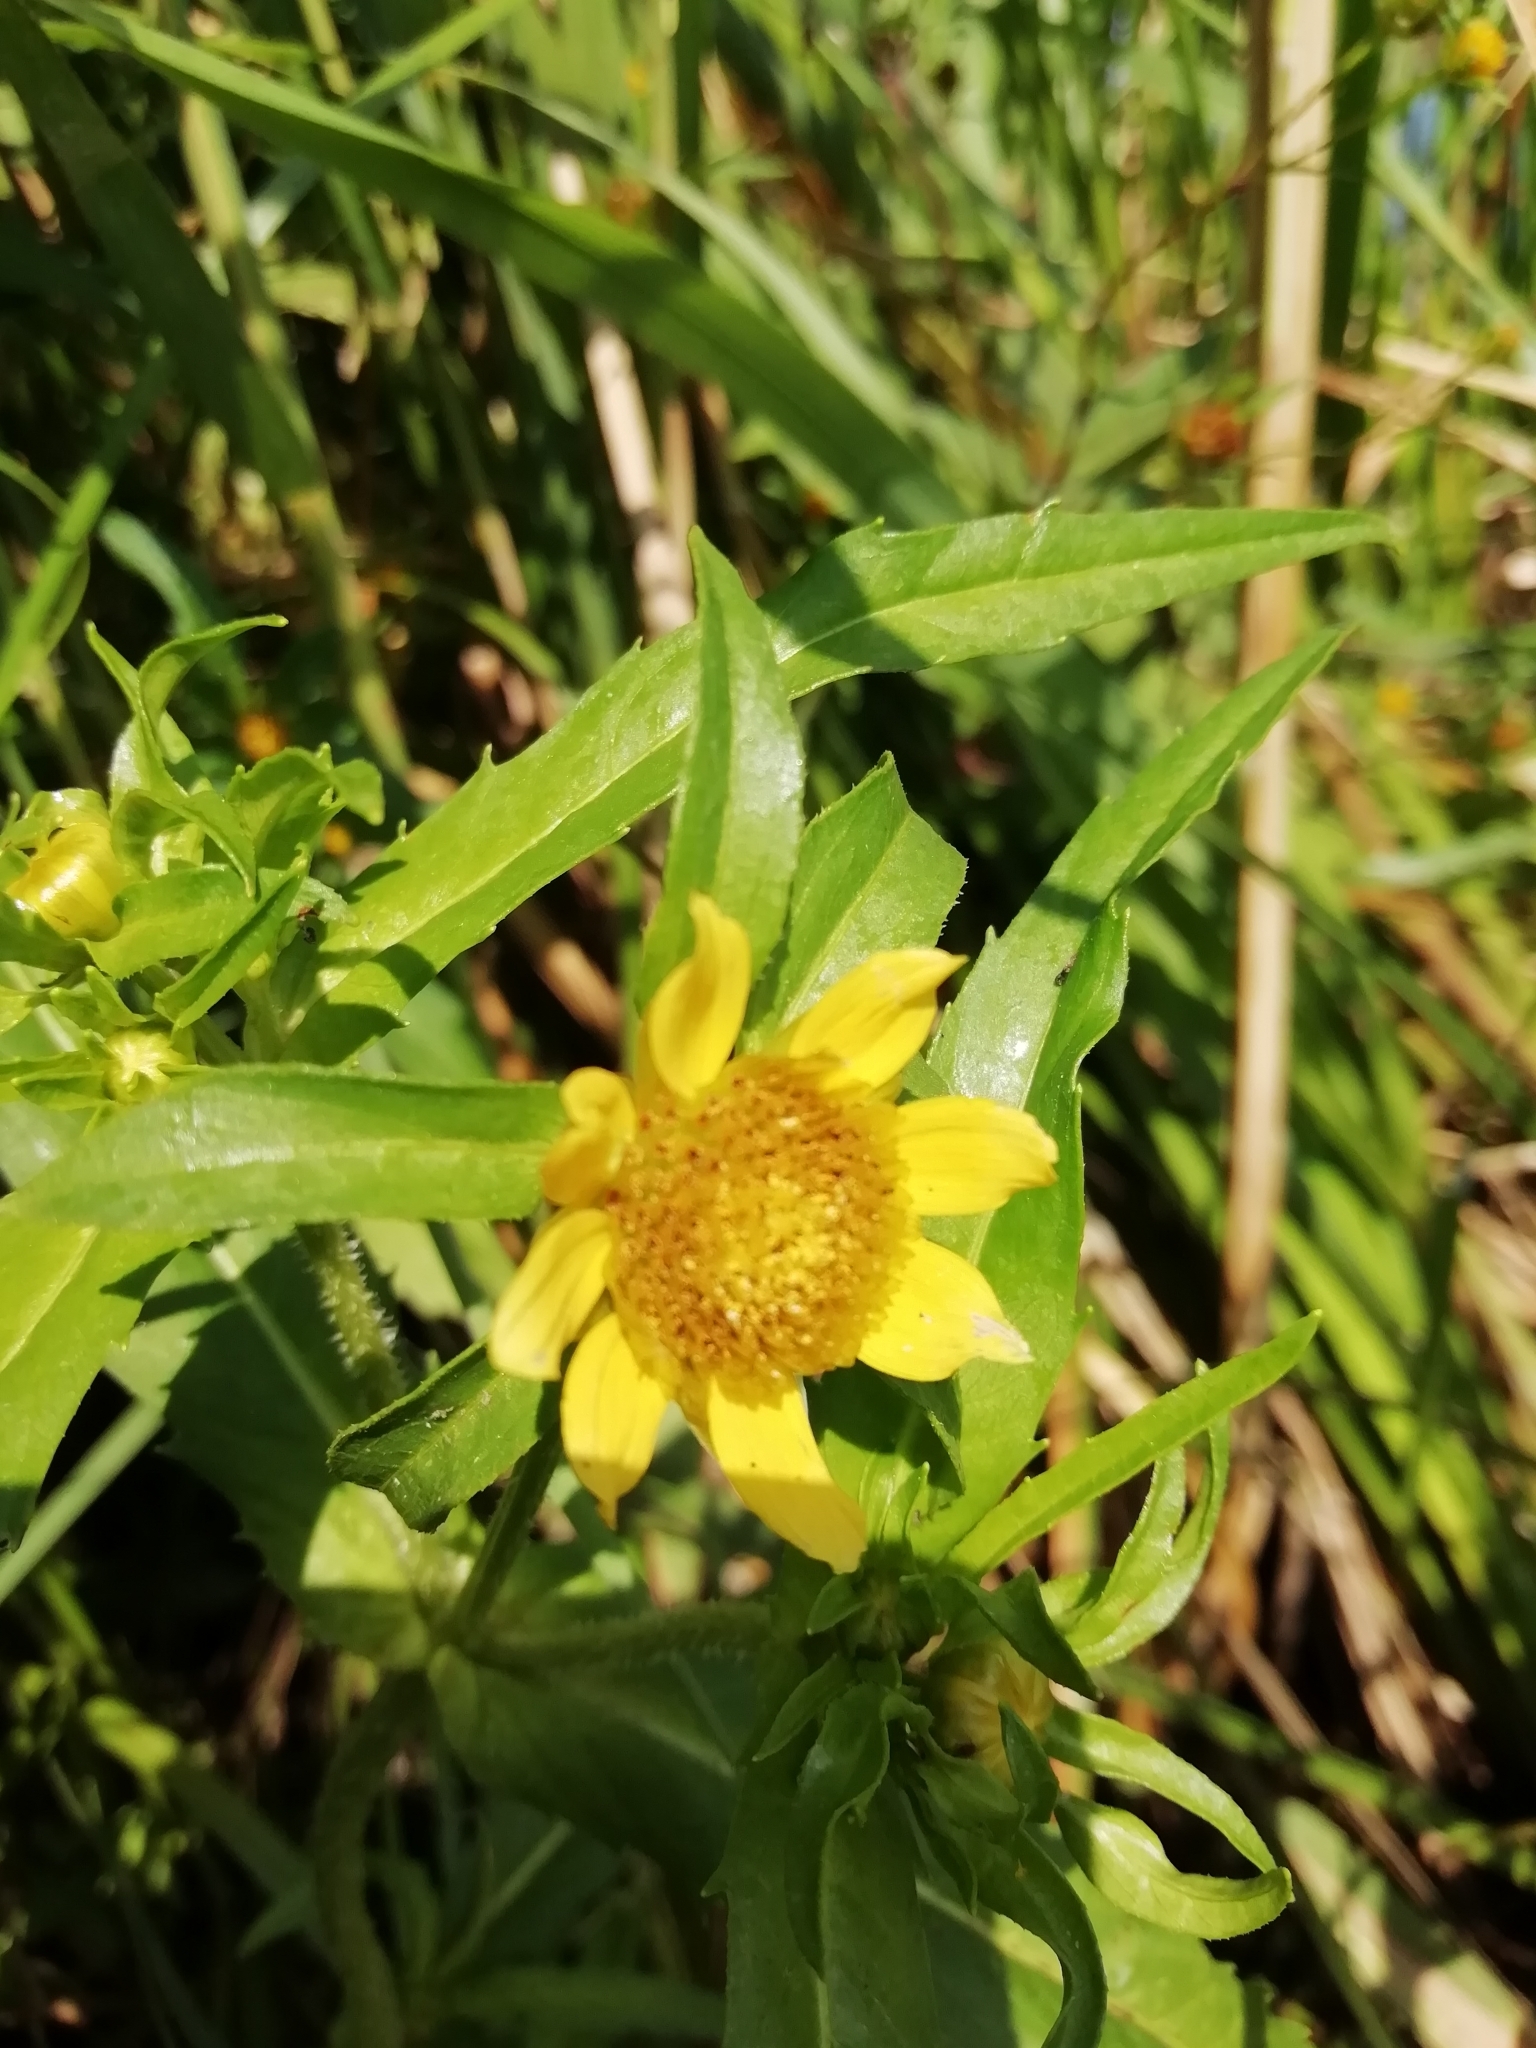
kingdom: Plantae
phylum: Tracheophyta
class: Magnoliopsida
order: Asterales
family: Asteraceae
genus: Bidens
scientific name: Bidens cernua
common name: Nodding bur-marigold
